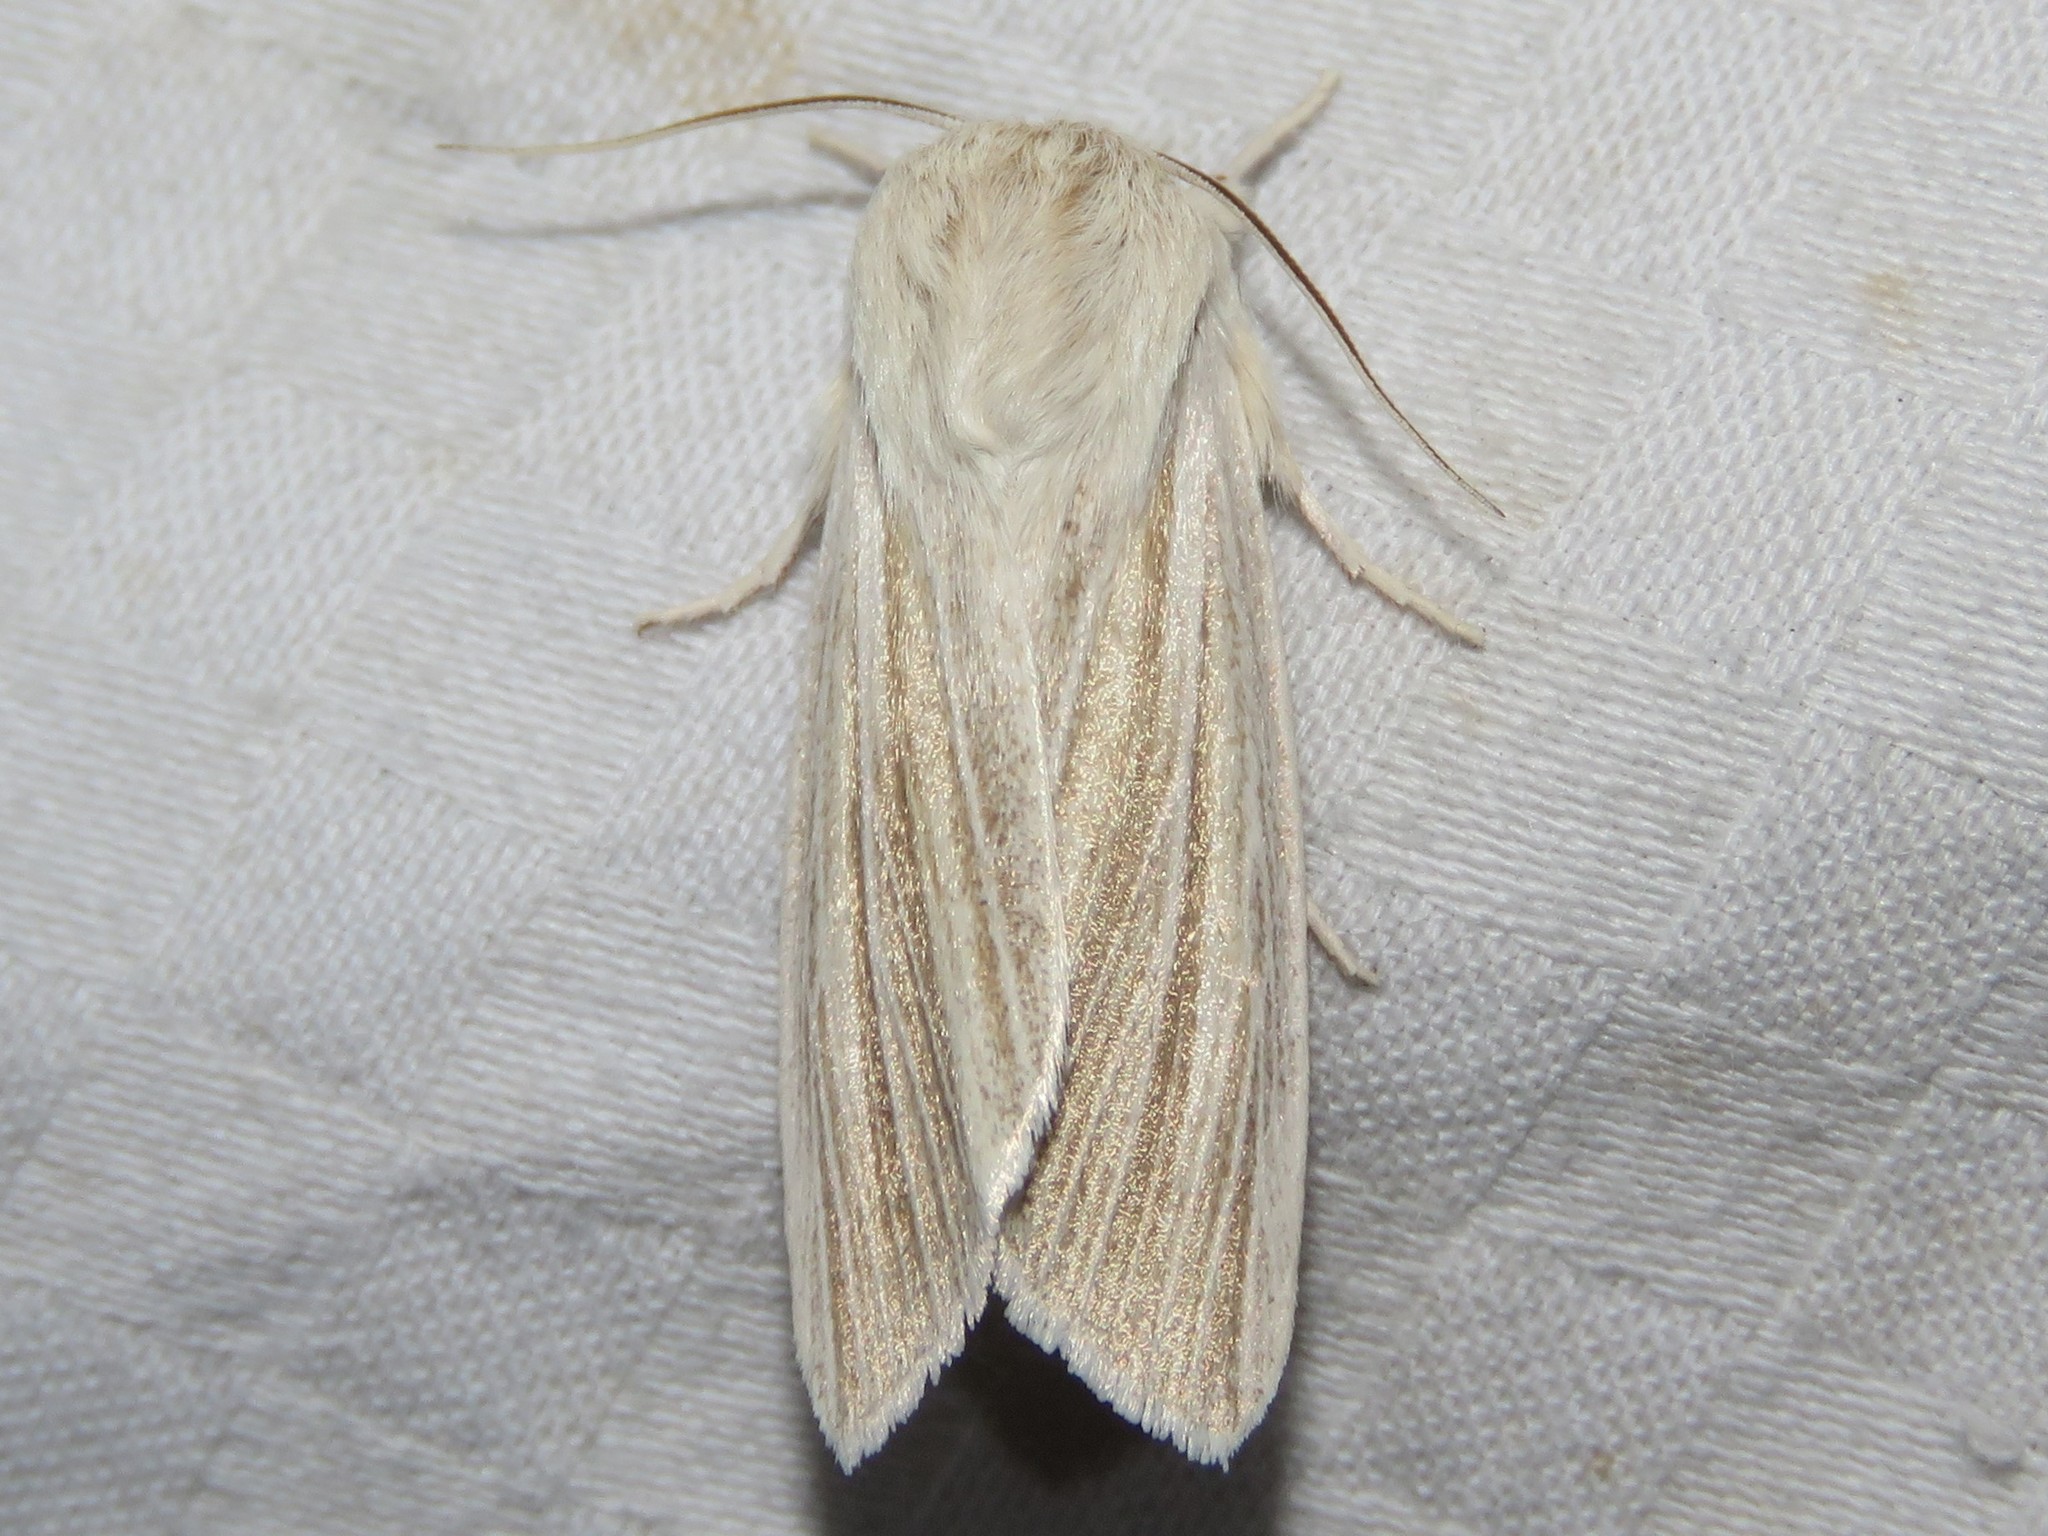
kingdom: Animalia
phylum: Arthropoda
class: Insecta
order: Lepidoptera
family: Noctuidae
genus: Acronicta
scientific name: Acronicta insularis
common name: Henry's marsh moth
